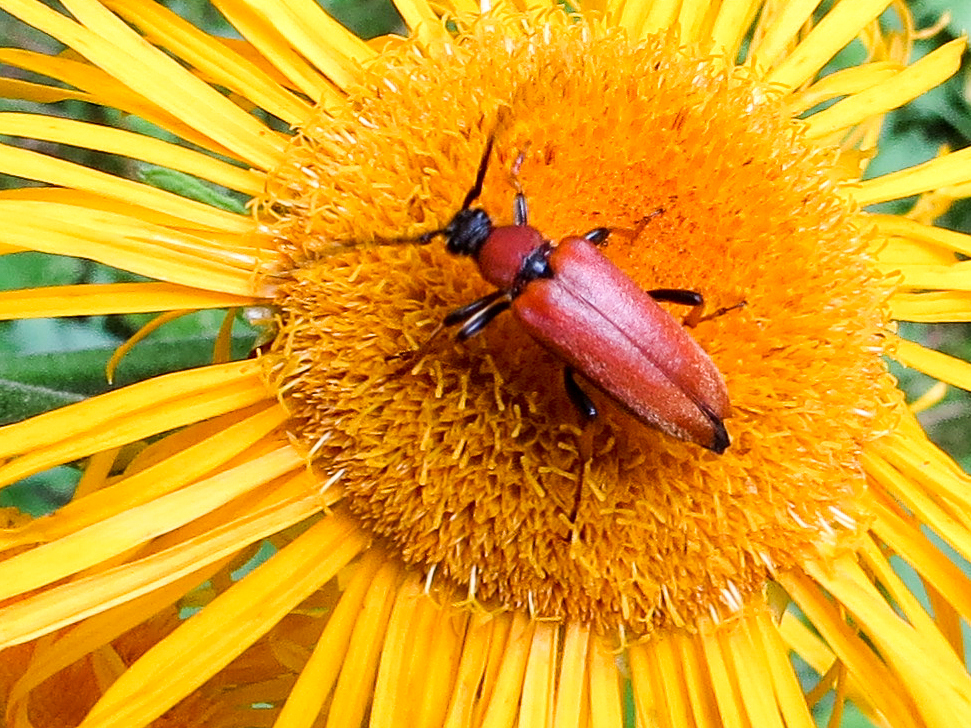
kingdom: Animalia
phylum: Arthropoda
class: Insecta
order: Coleoptera
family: Cerambycidae
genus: Stictoleptura
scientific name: Stictoleptura rubra
